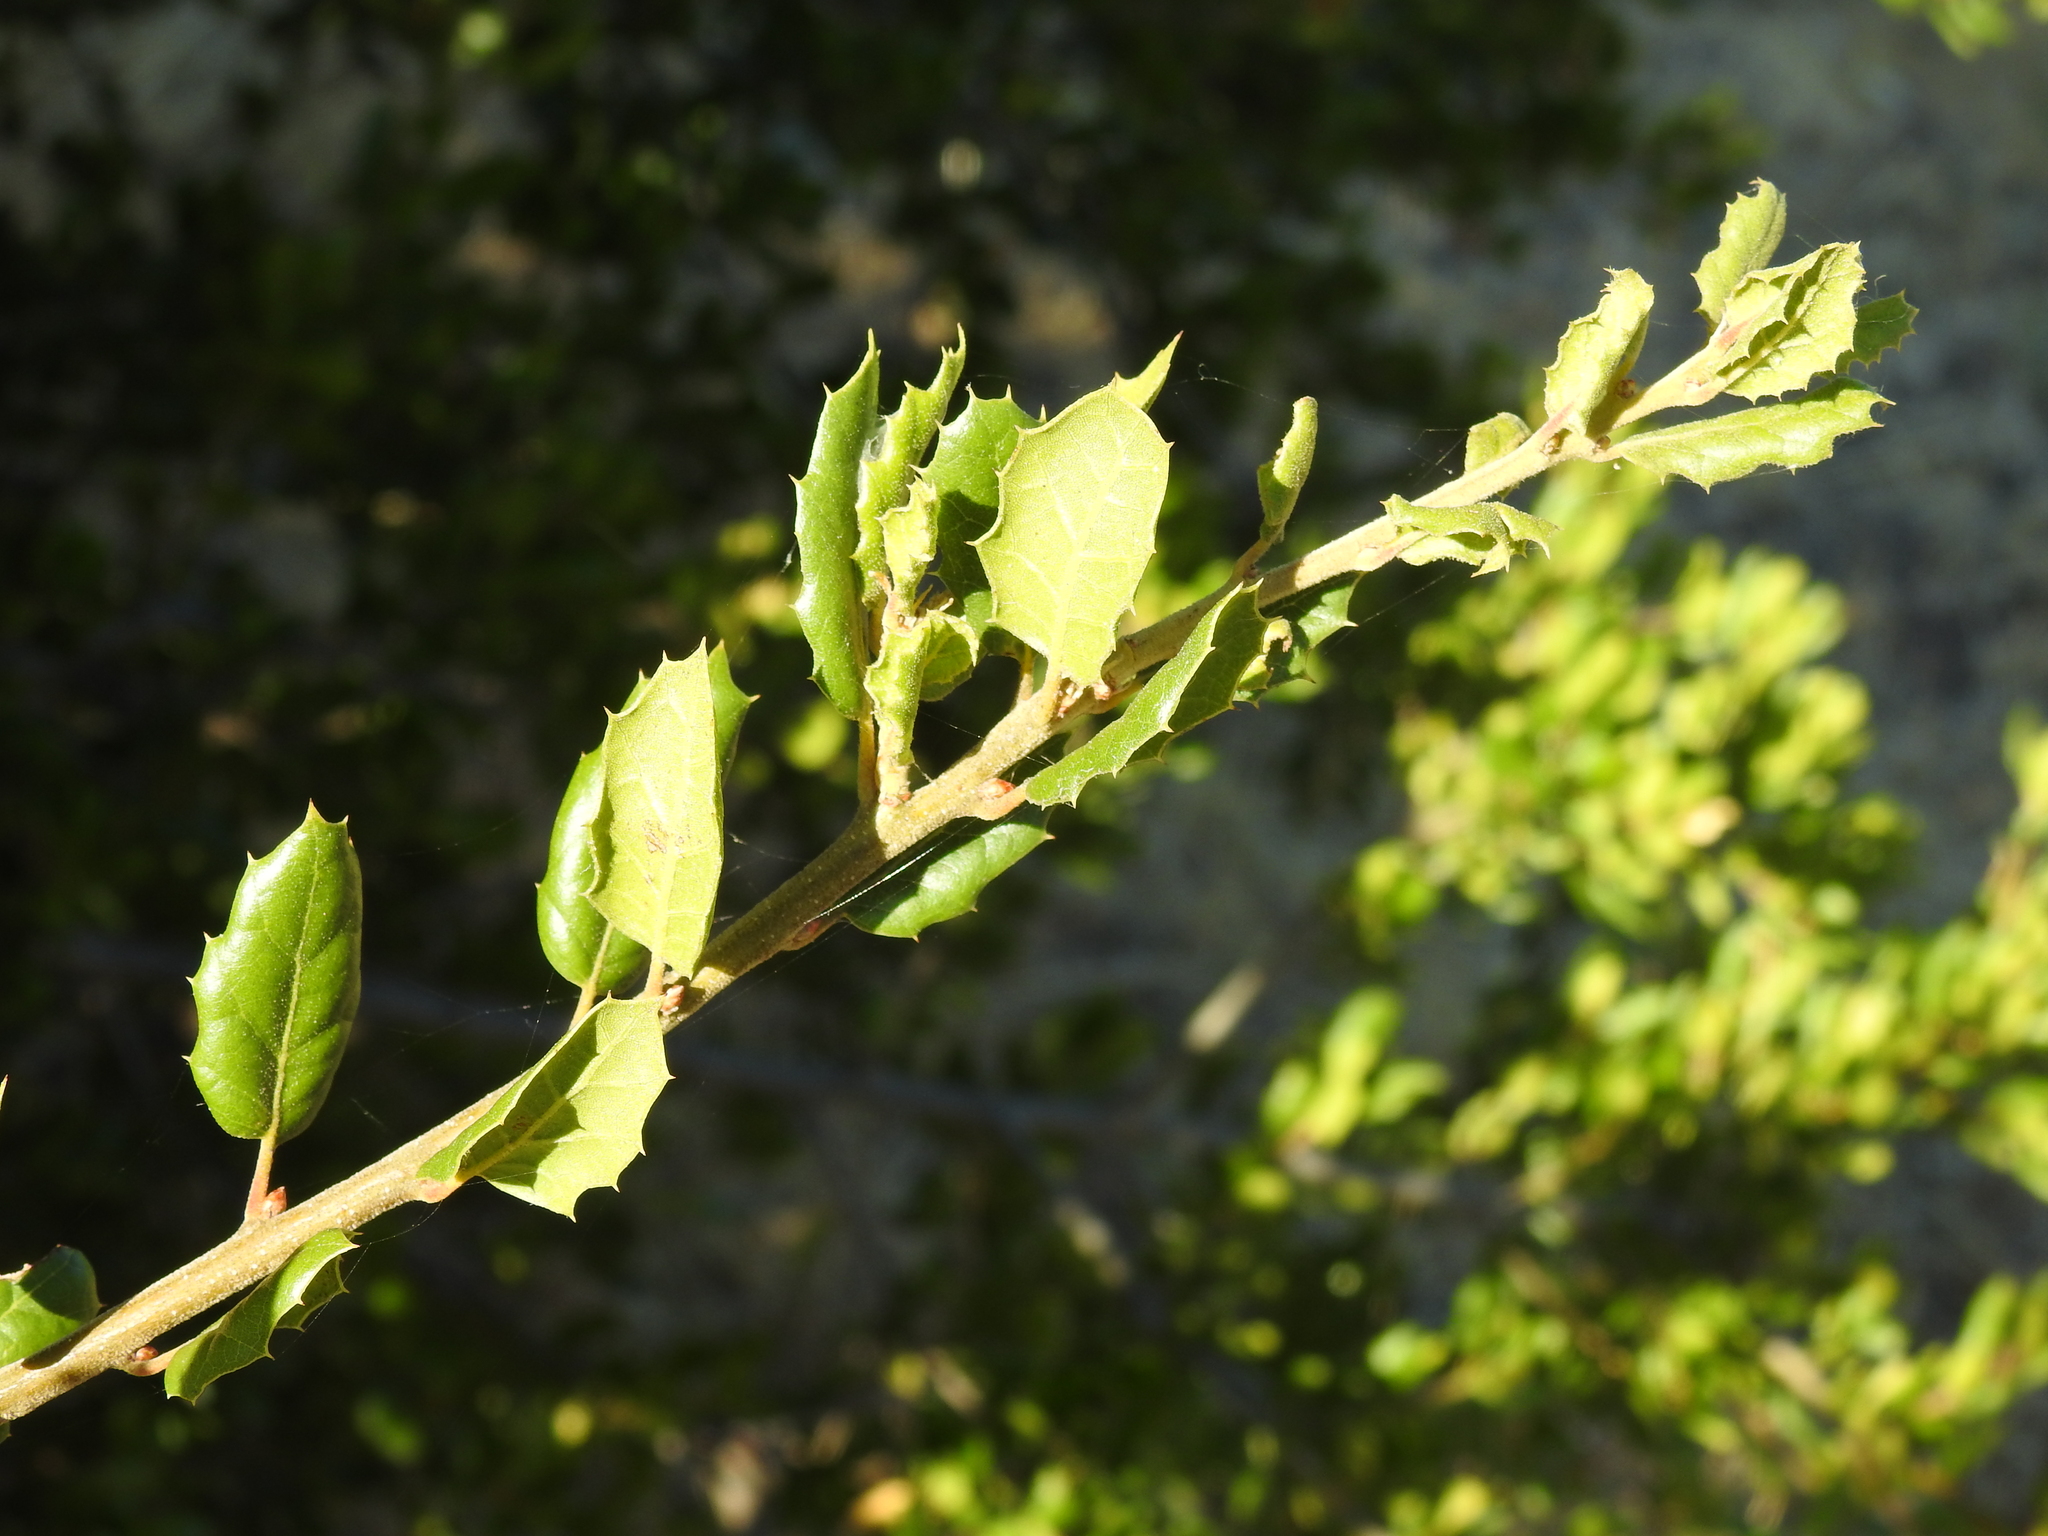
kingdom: Plantae
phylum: Tracheophyta
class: Magnoliopsida
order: Fagales
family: Fagaceae
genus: Quercus
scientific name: Quercus agrifolia
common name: California live oak
